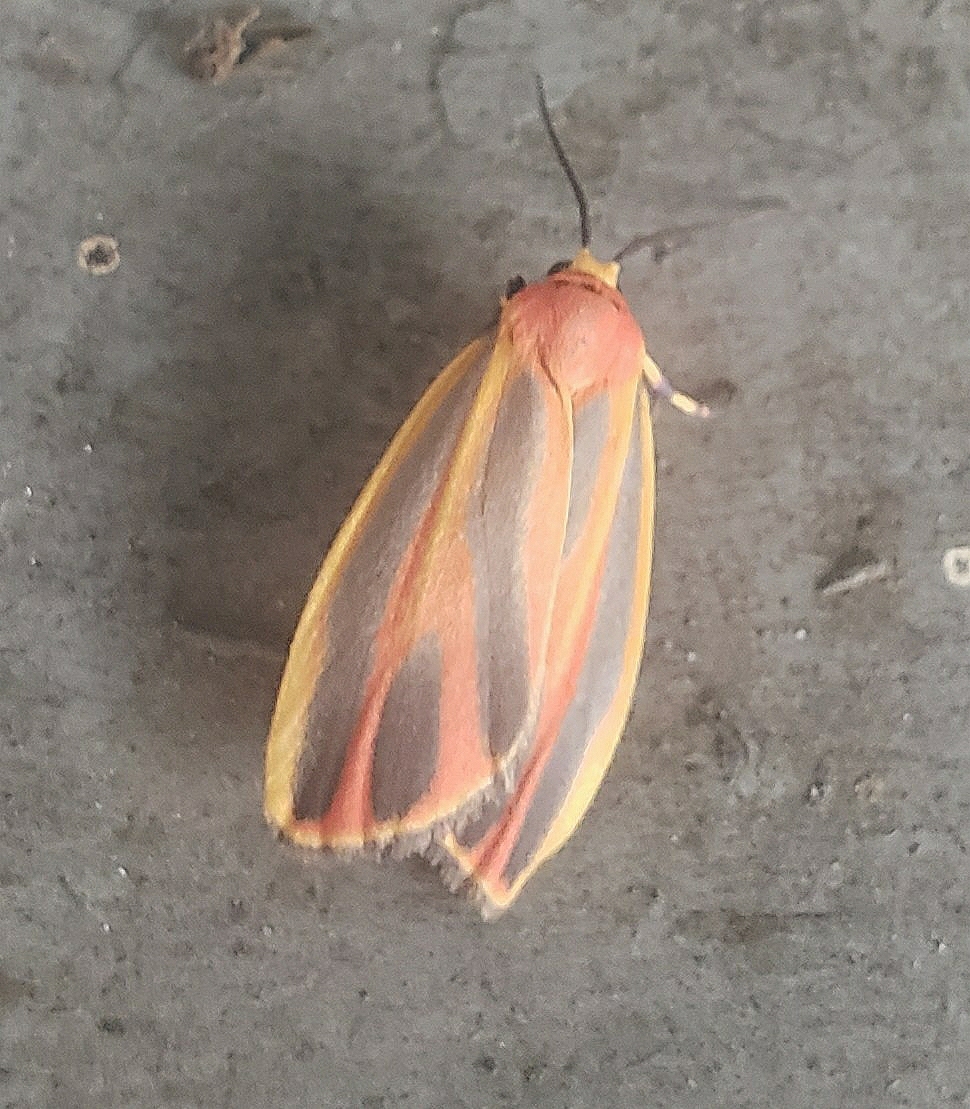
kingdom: Animalia
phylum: Arthropoda
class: Insecta
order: Lepidoptera
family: Erebidae
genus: Hypoprepia
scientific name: Hypoprepia fucosa
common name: Painted lichen moth
